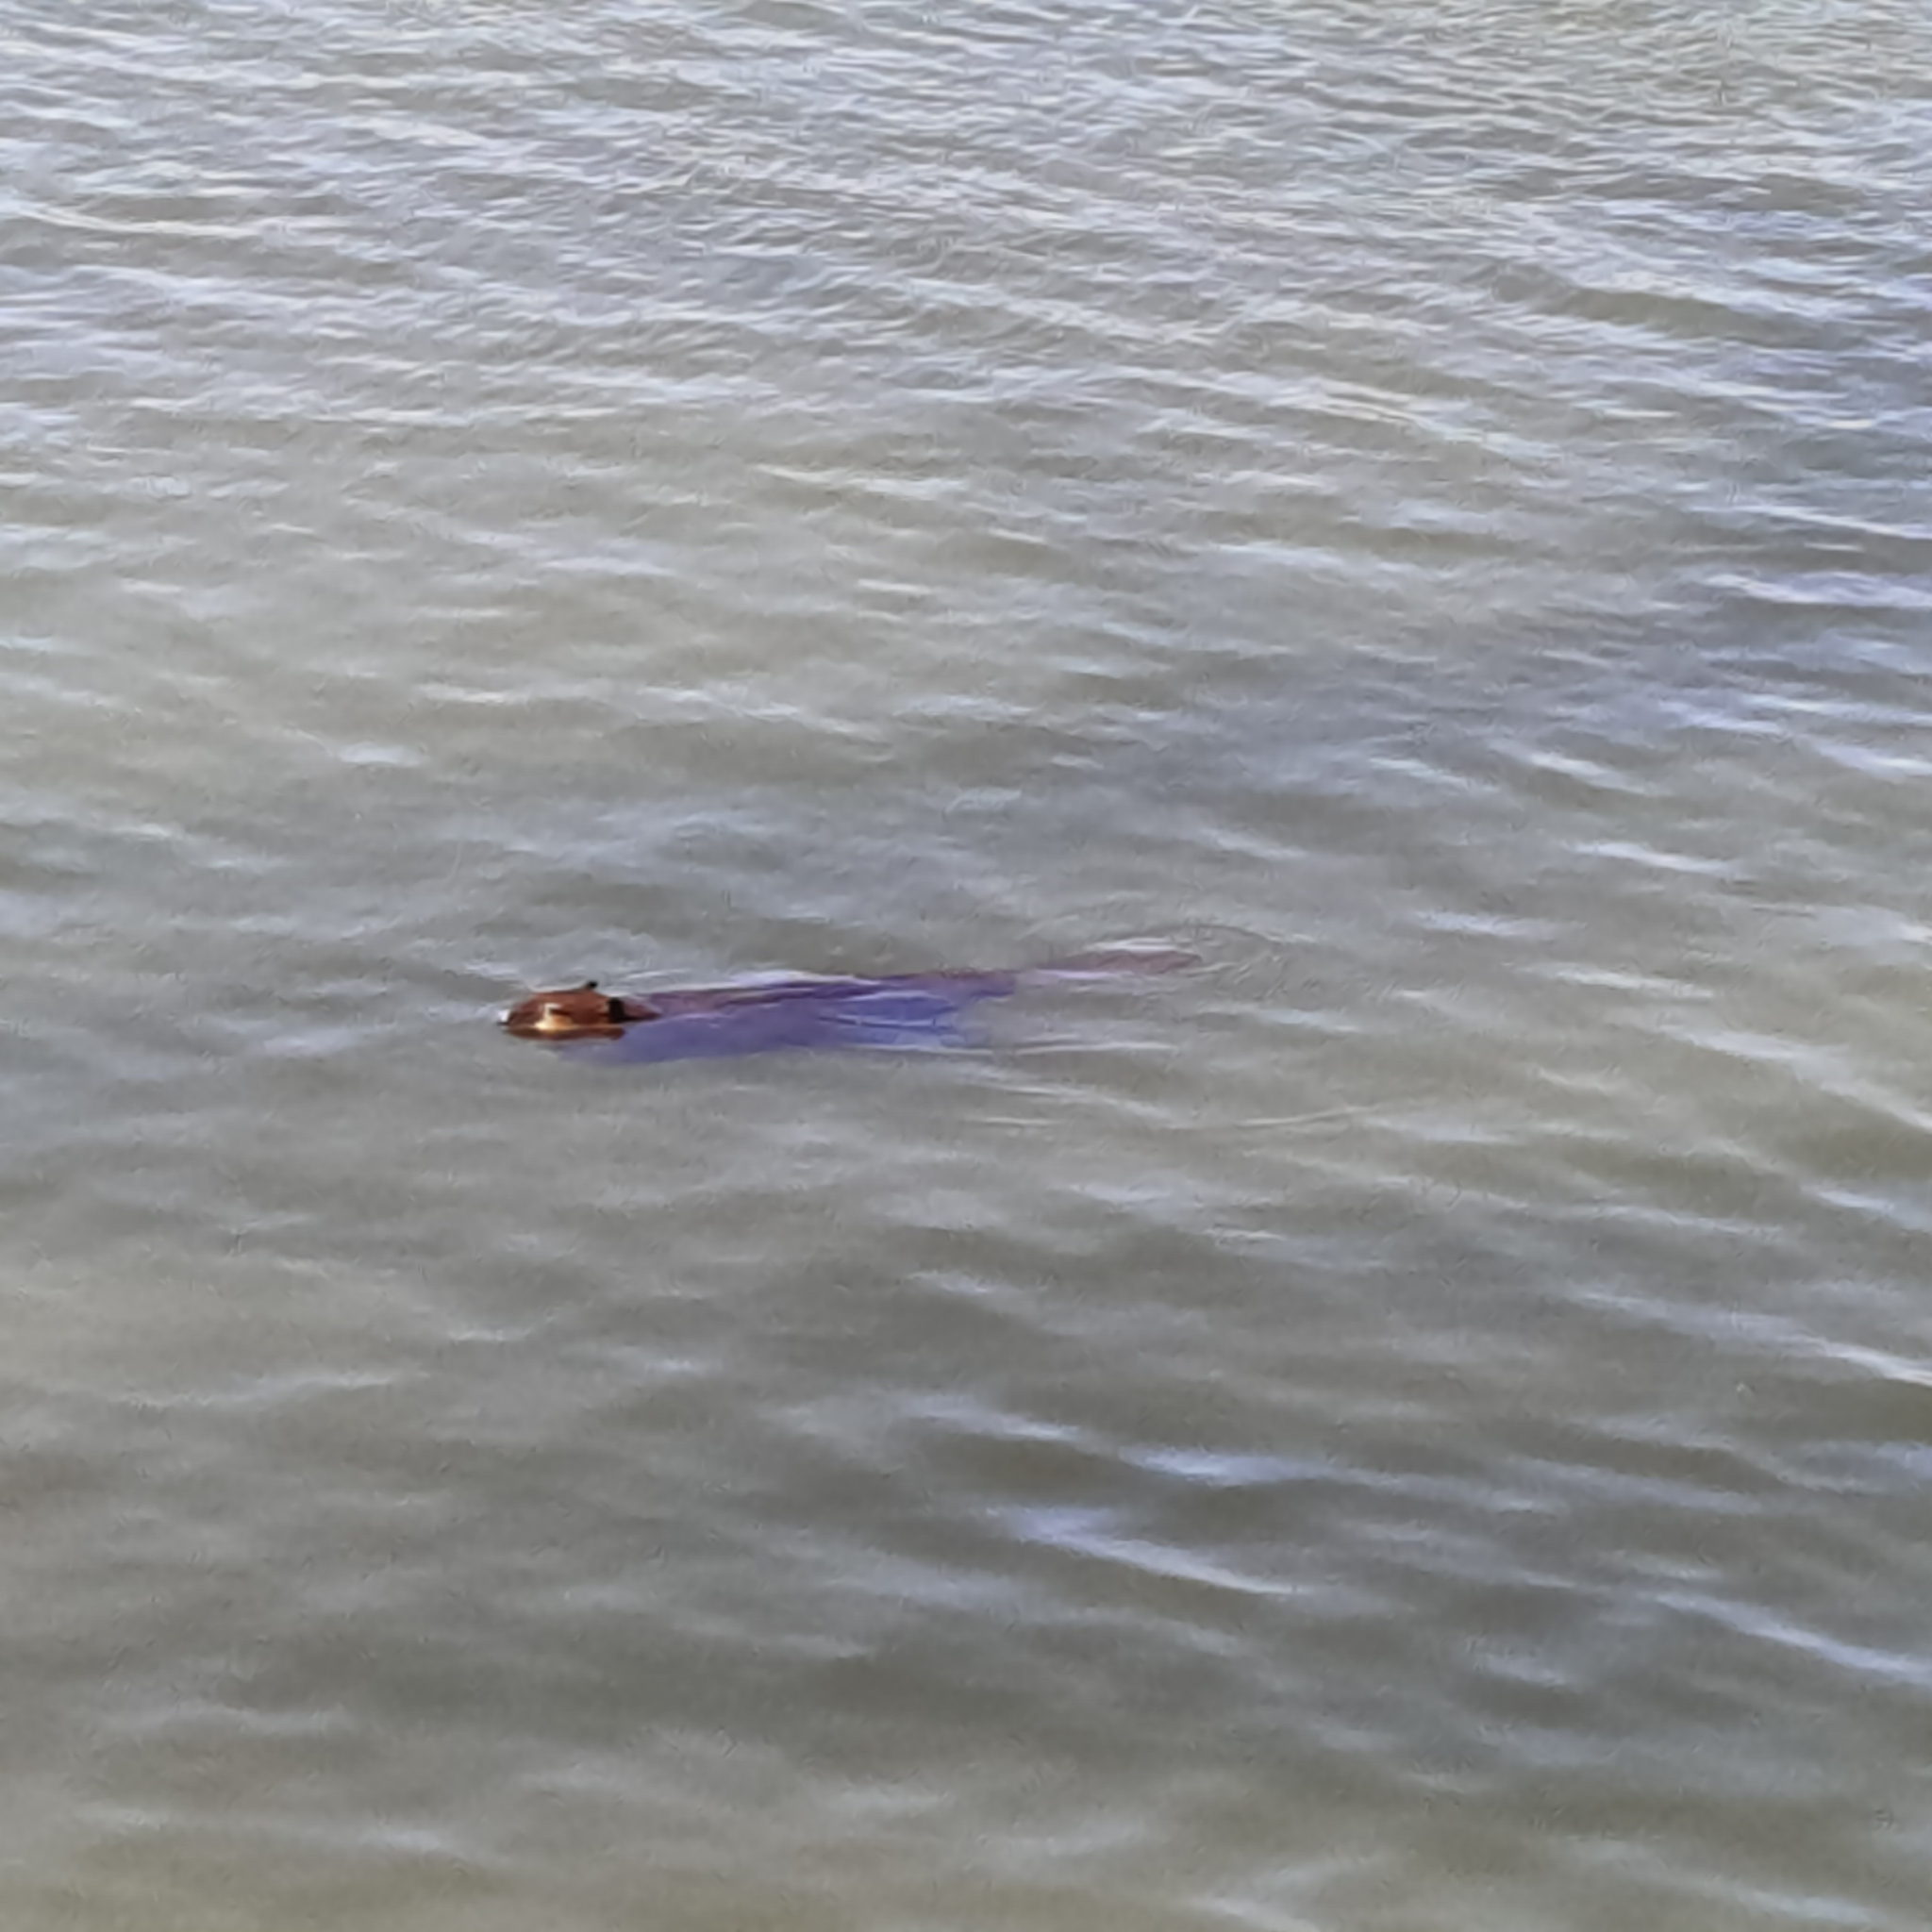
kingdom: Animalia
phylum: Chordata
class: Mammalia
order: Rodentia
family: Castoridae
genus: Castor
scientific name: Castor canadensis
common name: American beaver
